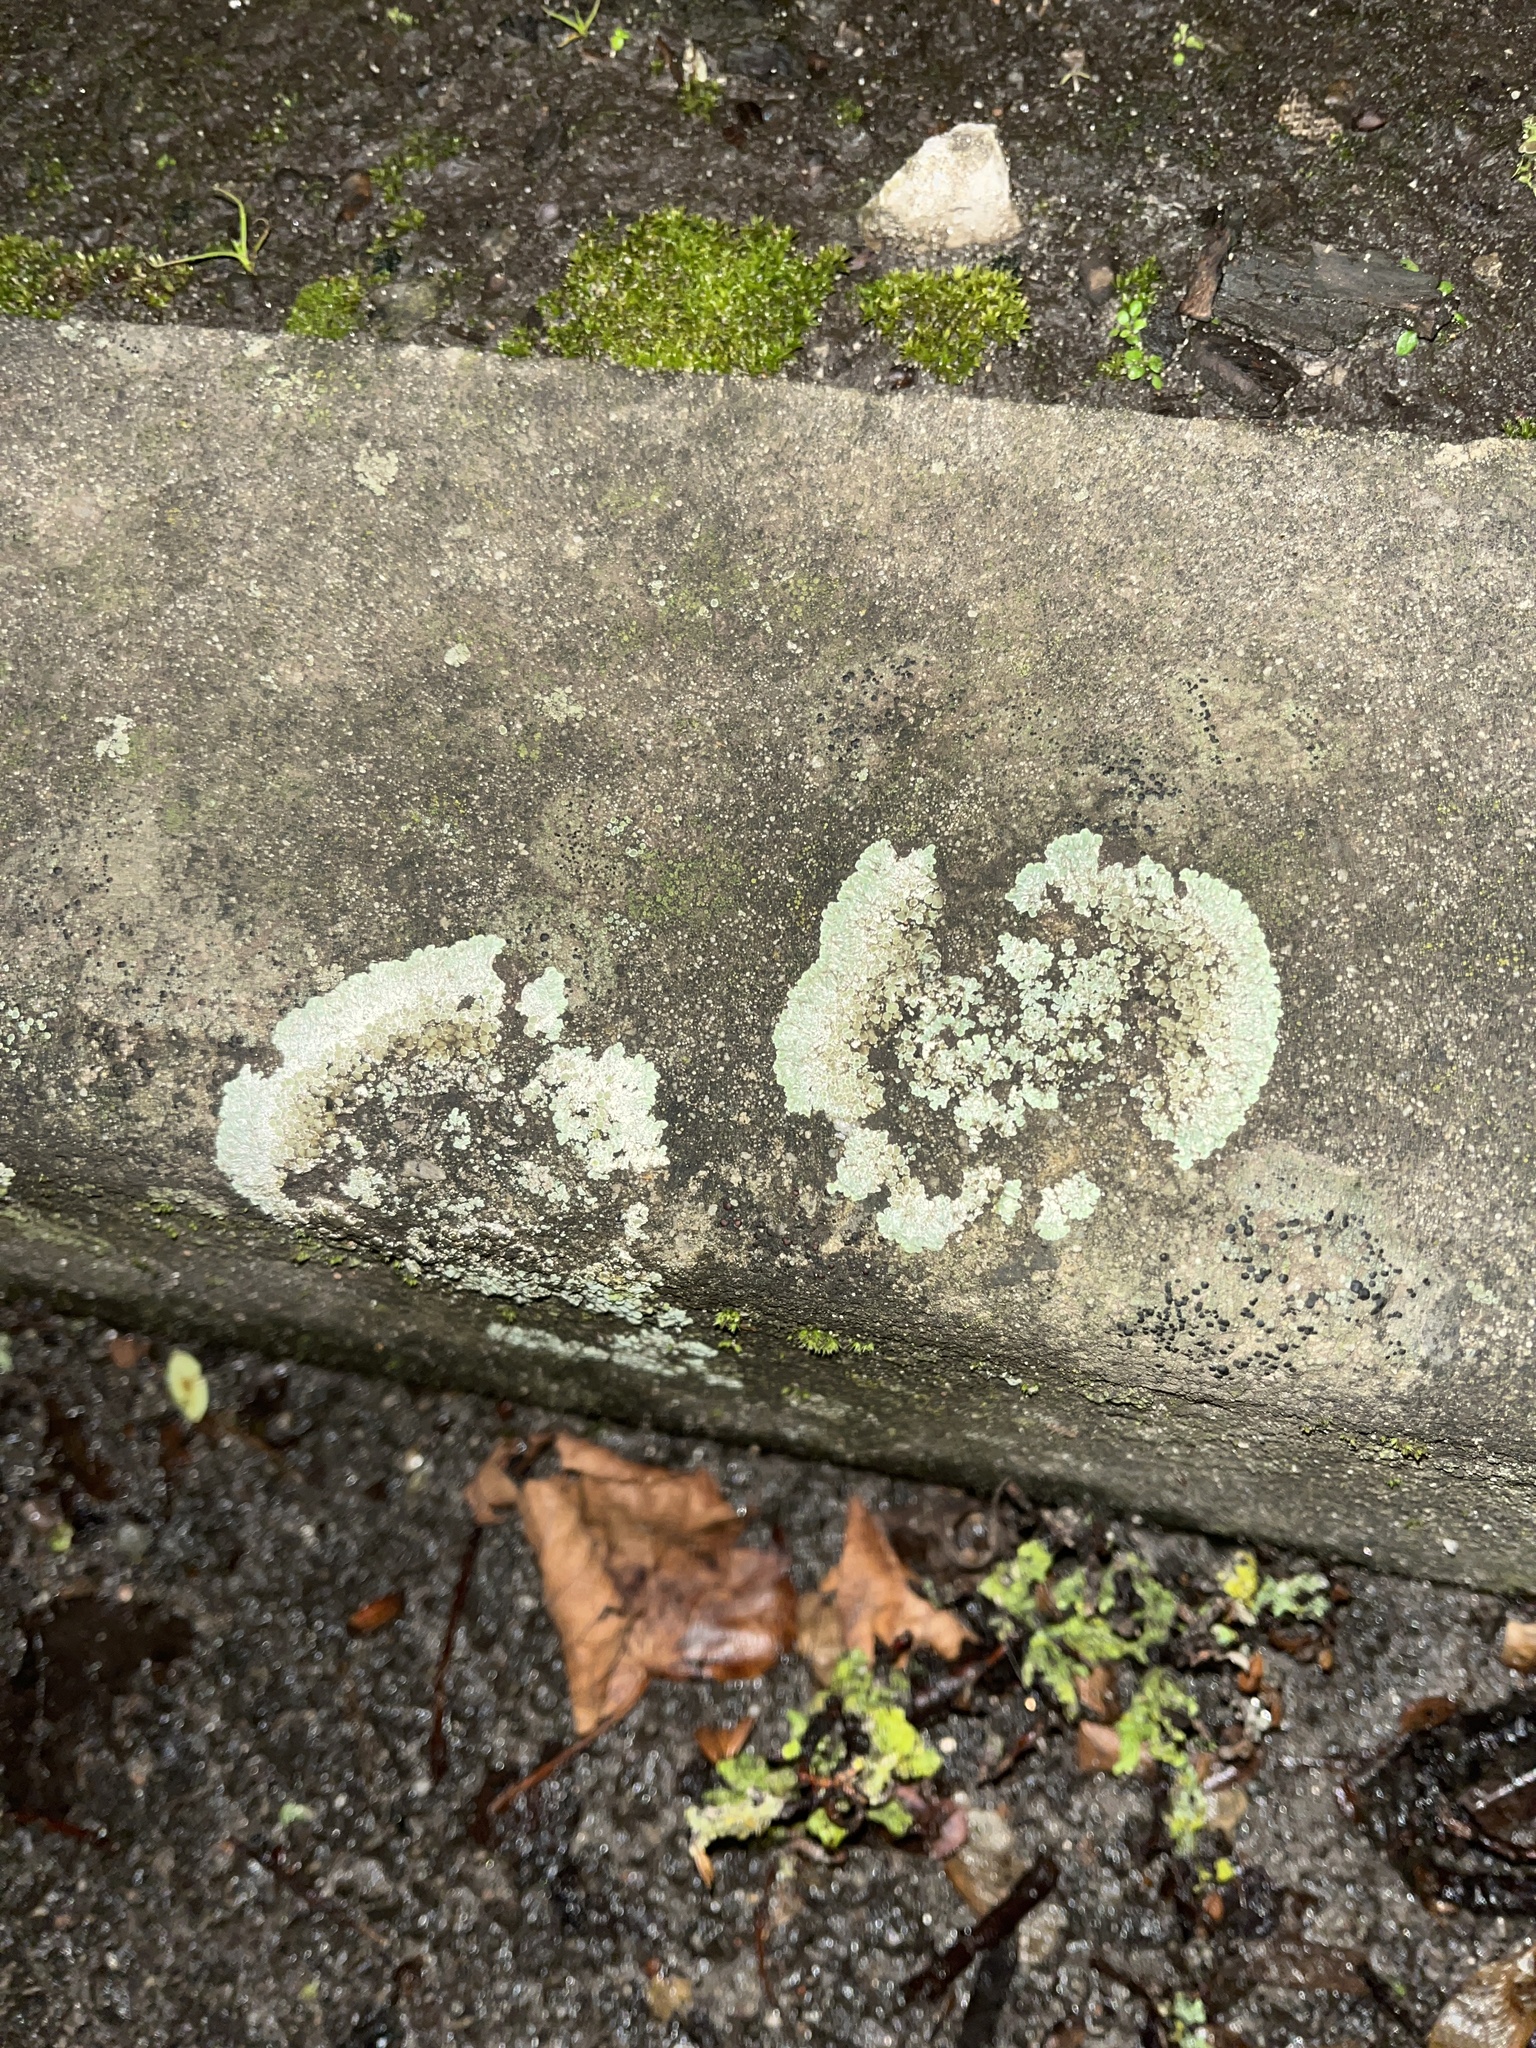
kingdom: Fungi
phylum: Ascomycota
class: Lecanoromycetes
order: Lecanorales
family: Lecanoraceae
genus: Protoparmeliopsis
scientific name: Protoparmeliopsis muralis
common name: Stonewall rim lichen
